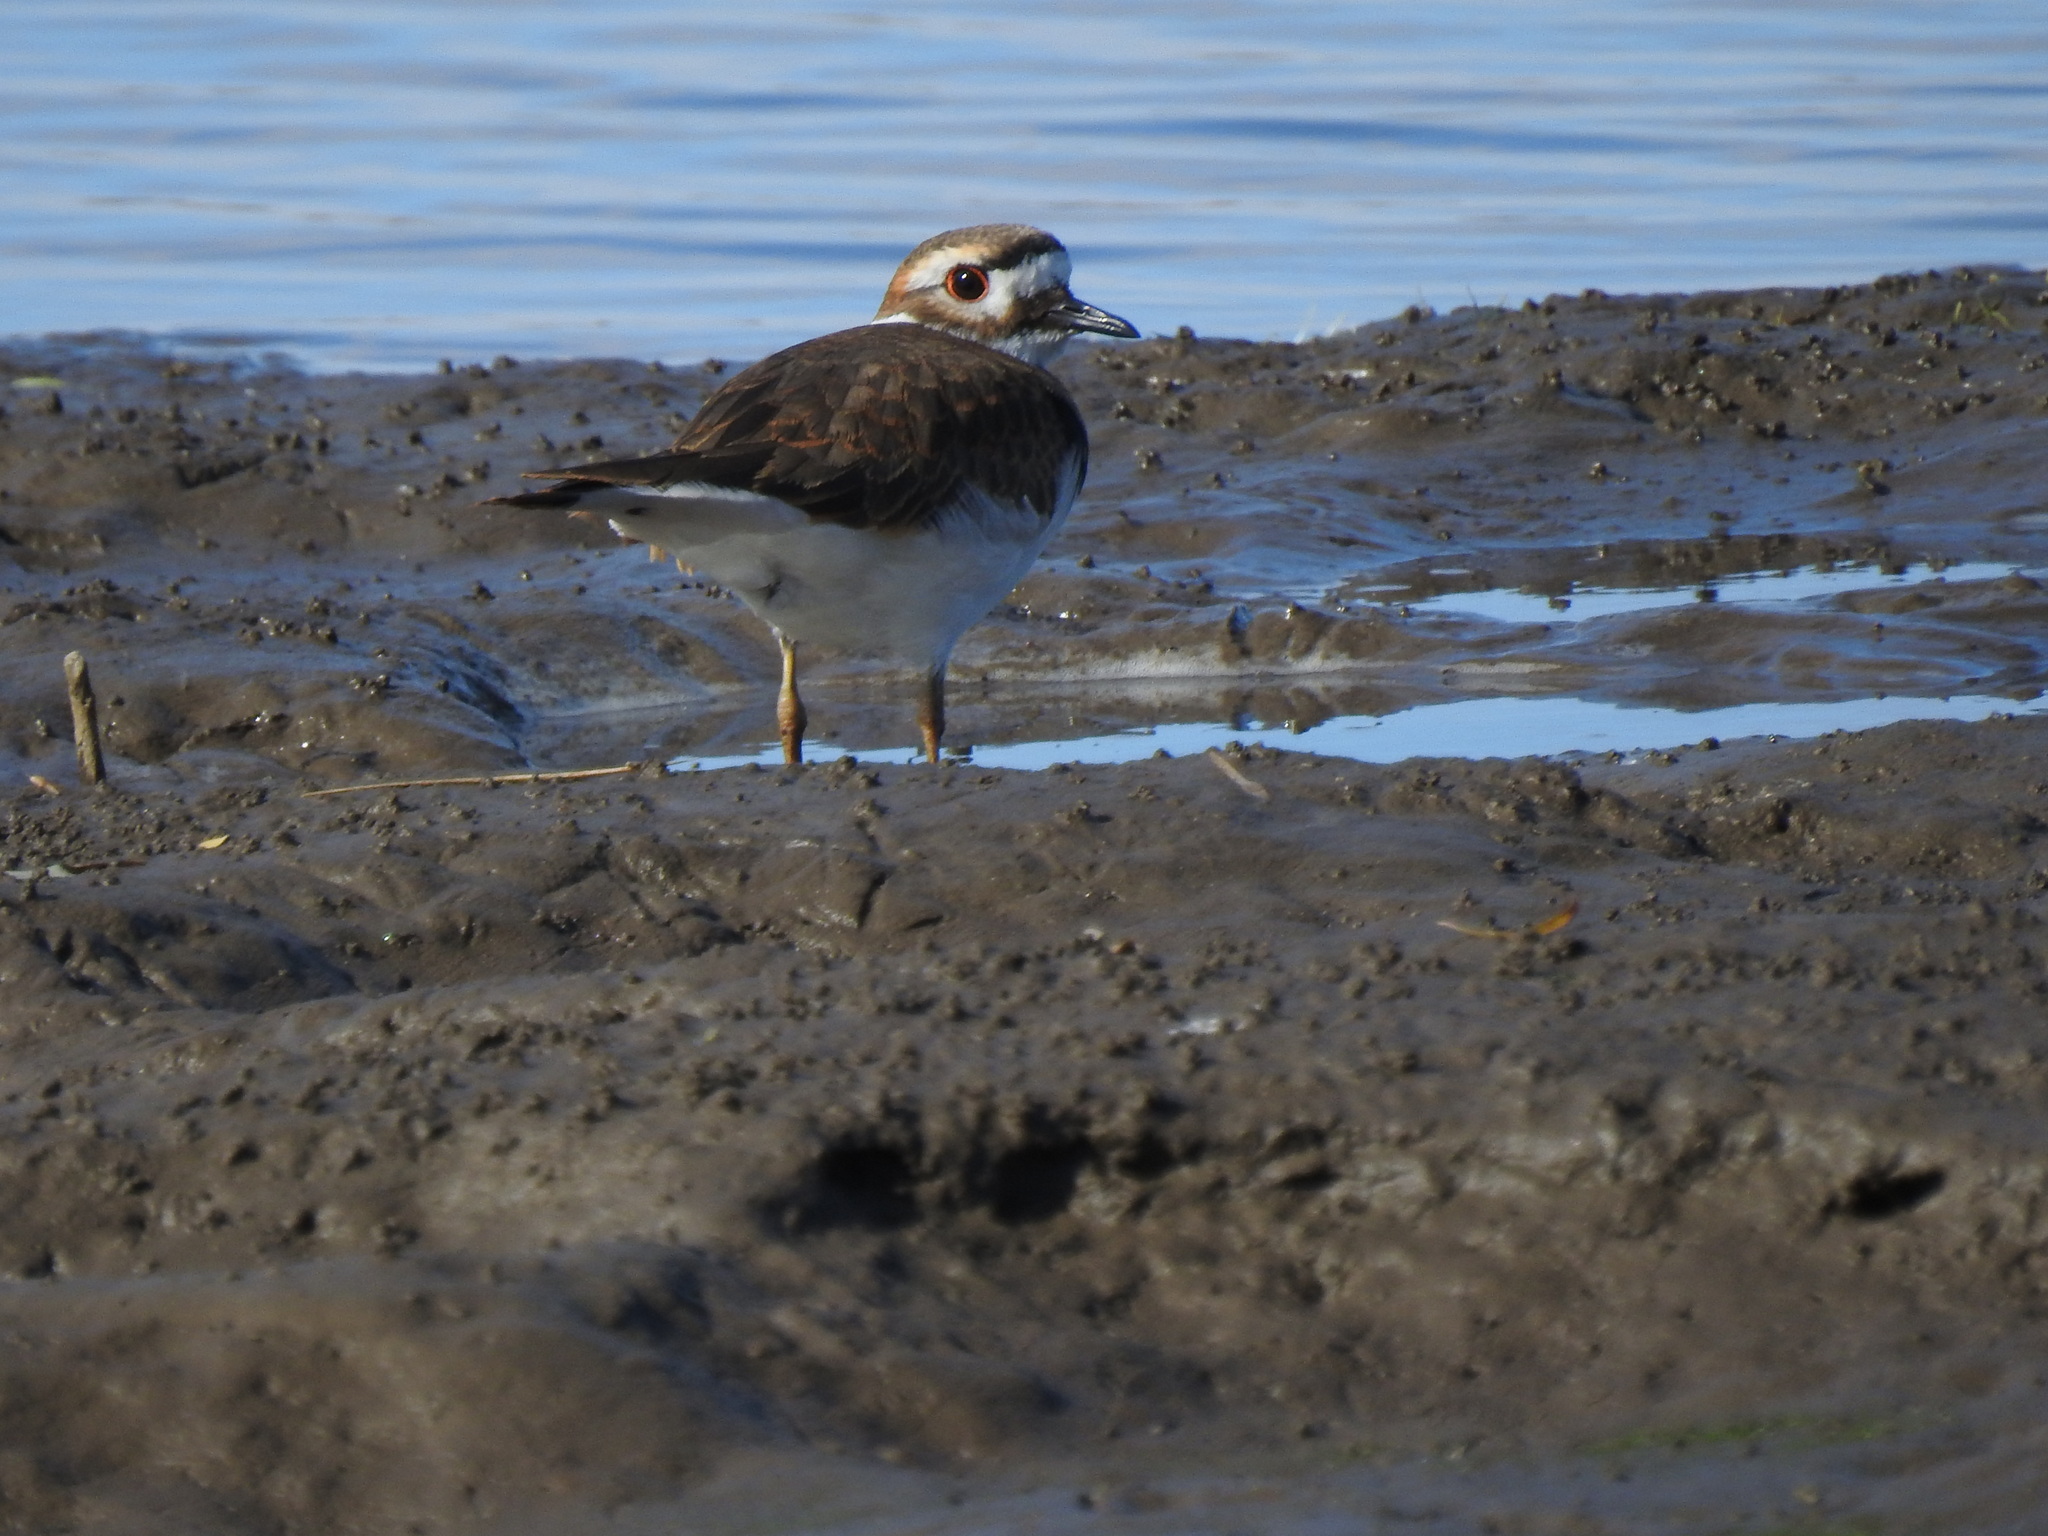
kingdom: Animalia
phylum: Chordata
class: Aves
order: Charadriiformes
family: Charadriidae
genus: Charadrius
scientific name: Charadrius vociferus
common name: Killdeer
